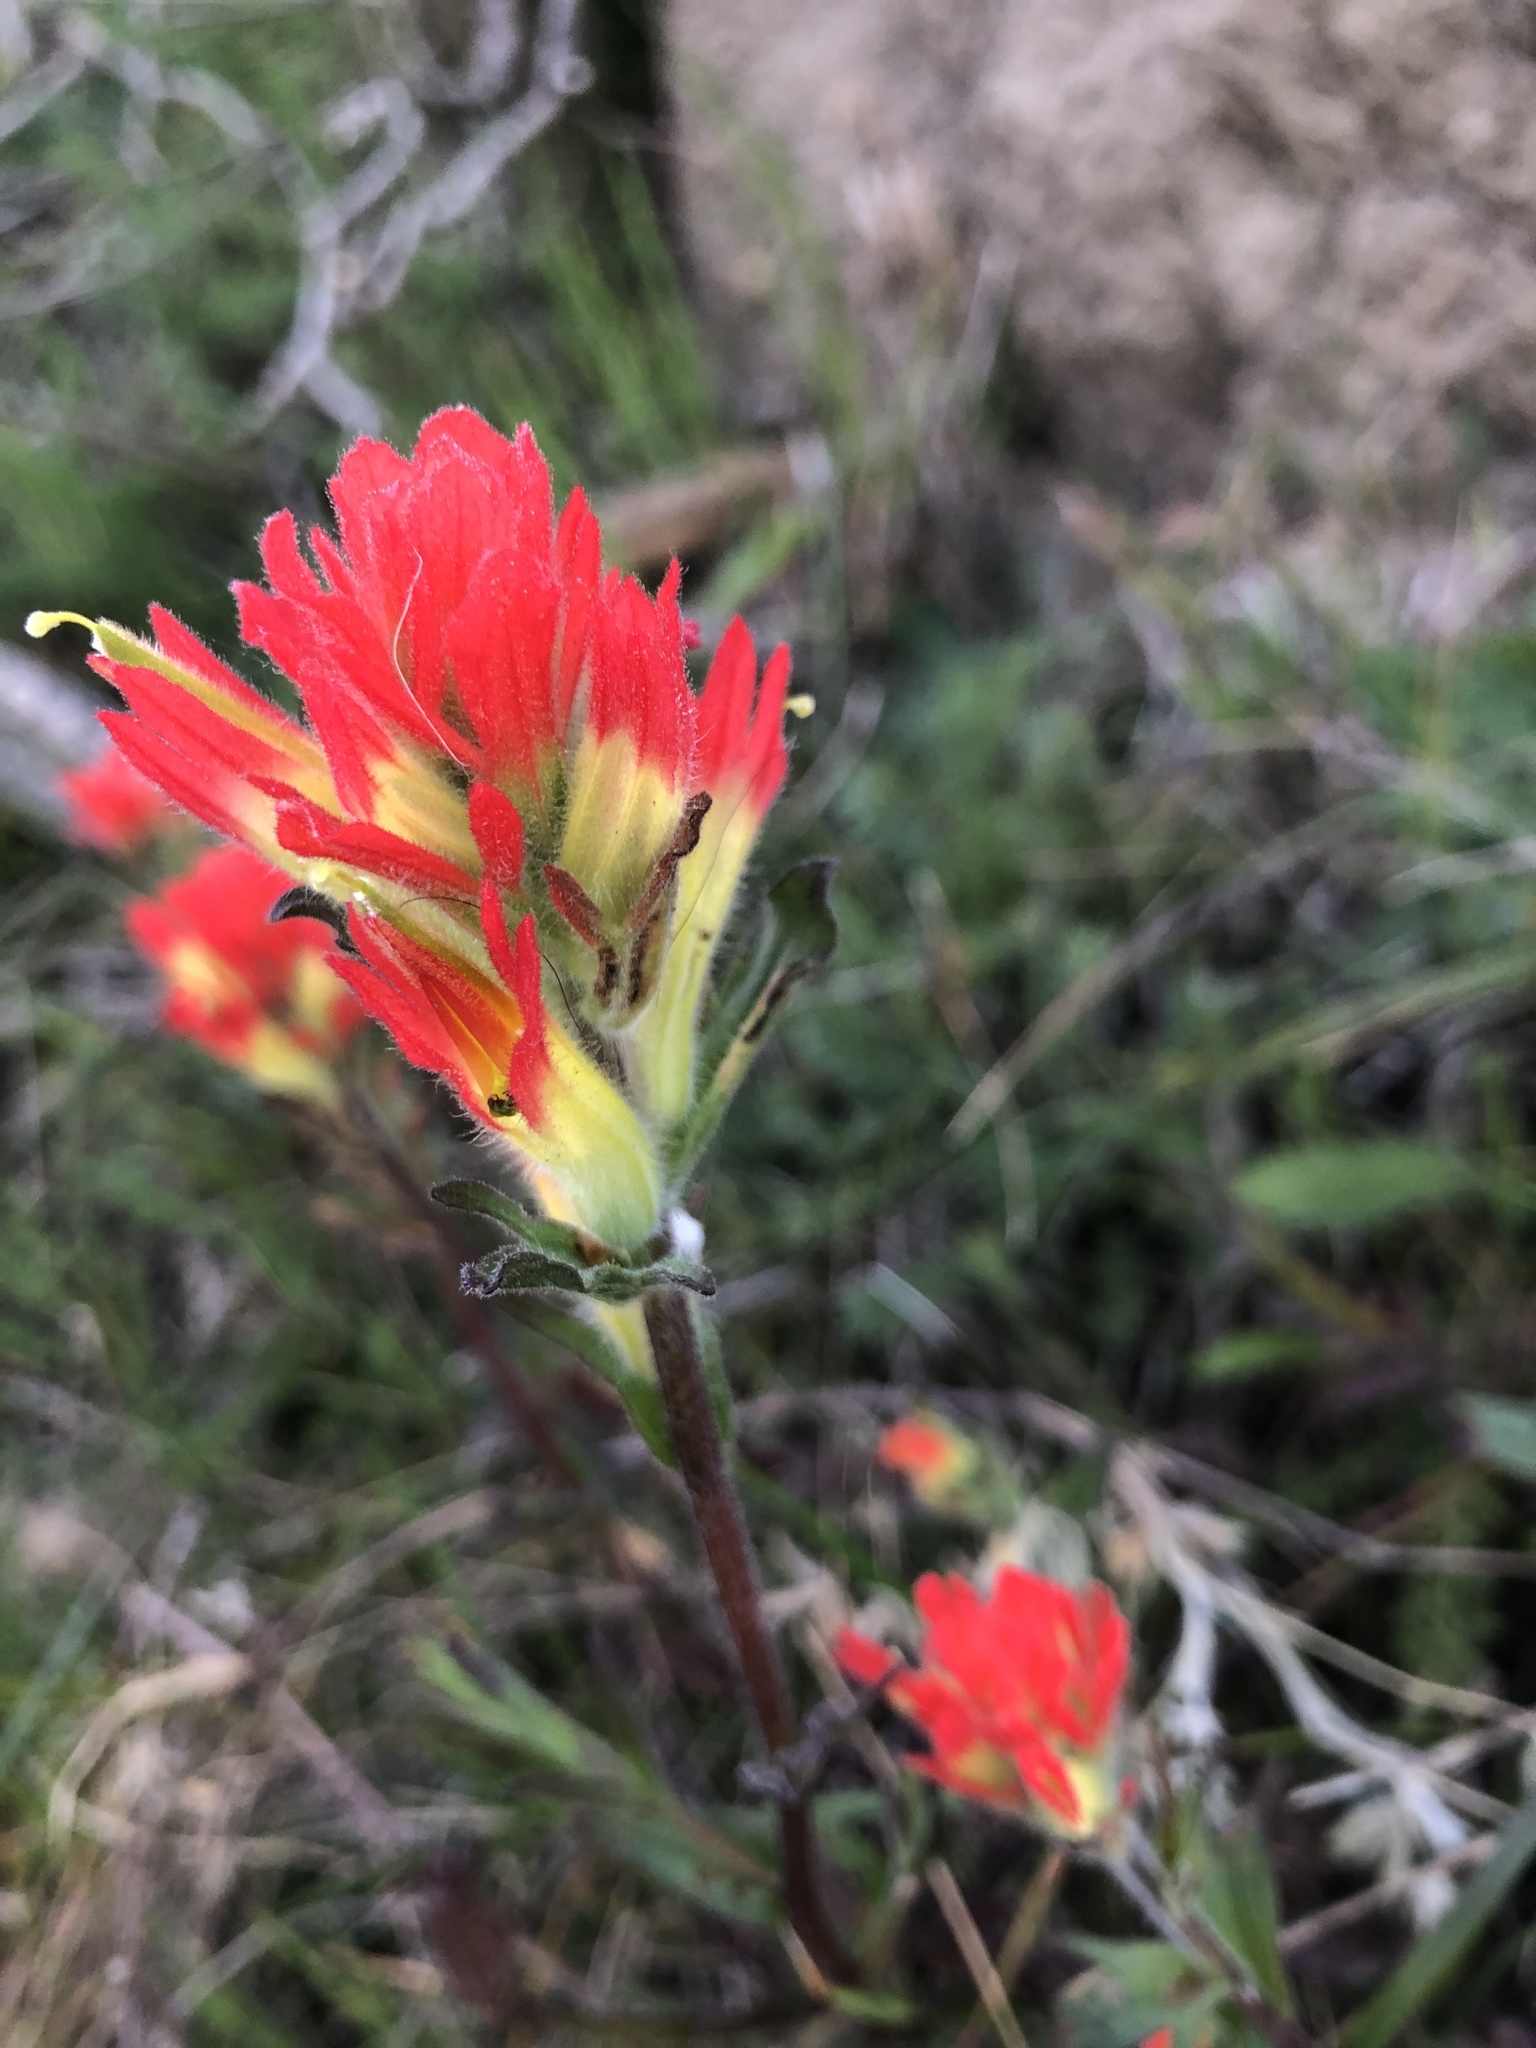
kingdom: Plantae
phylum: Tracheophyta
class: Magnoliopsida
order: Lamiales
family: Orobanchaceae
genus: Castilleja
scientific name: Castilleja affinis
